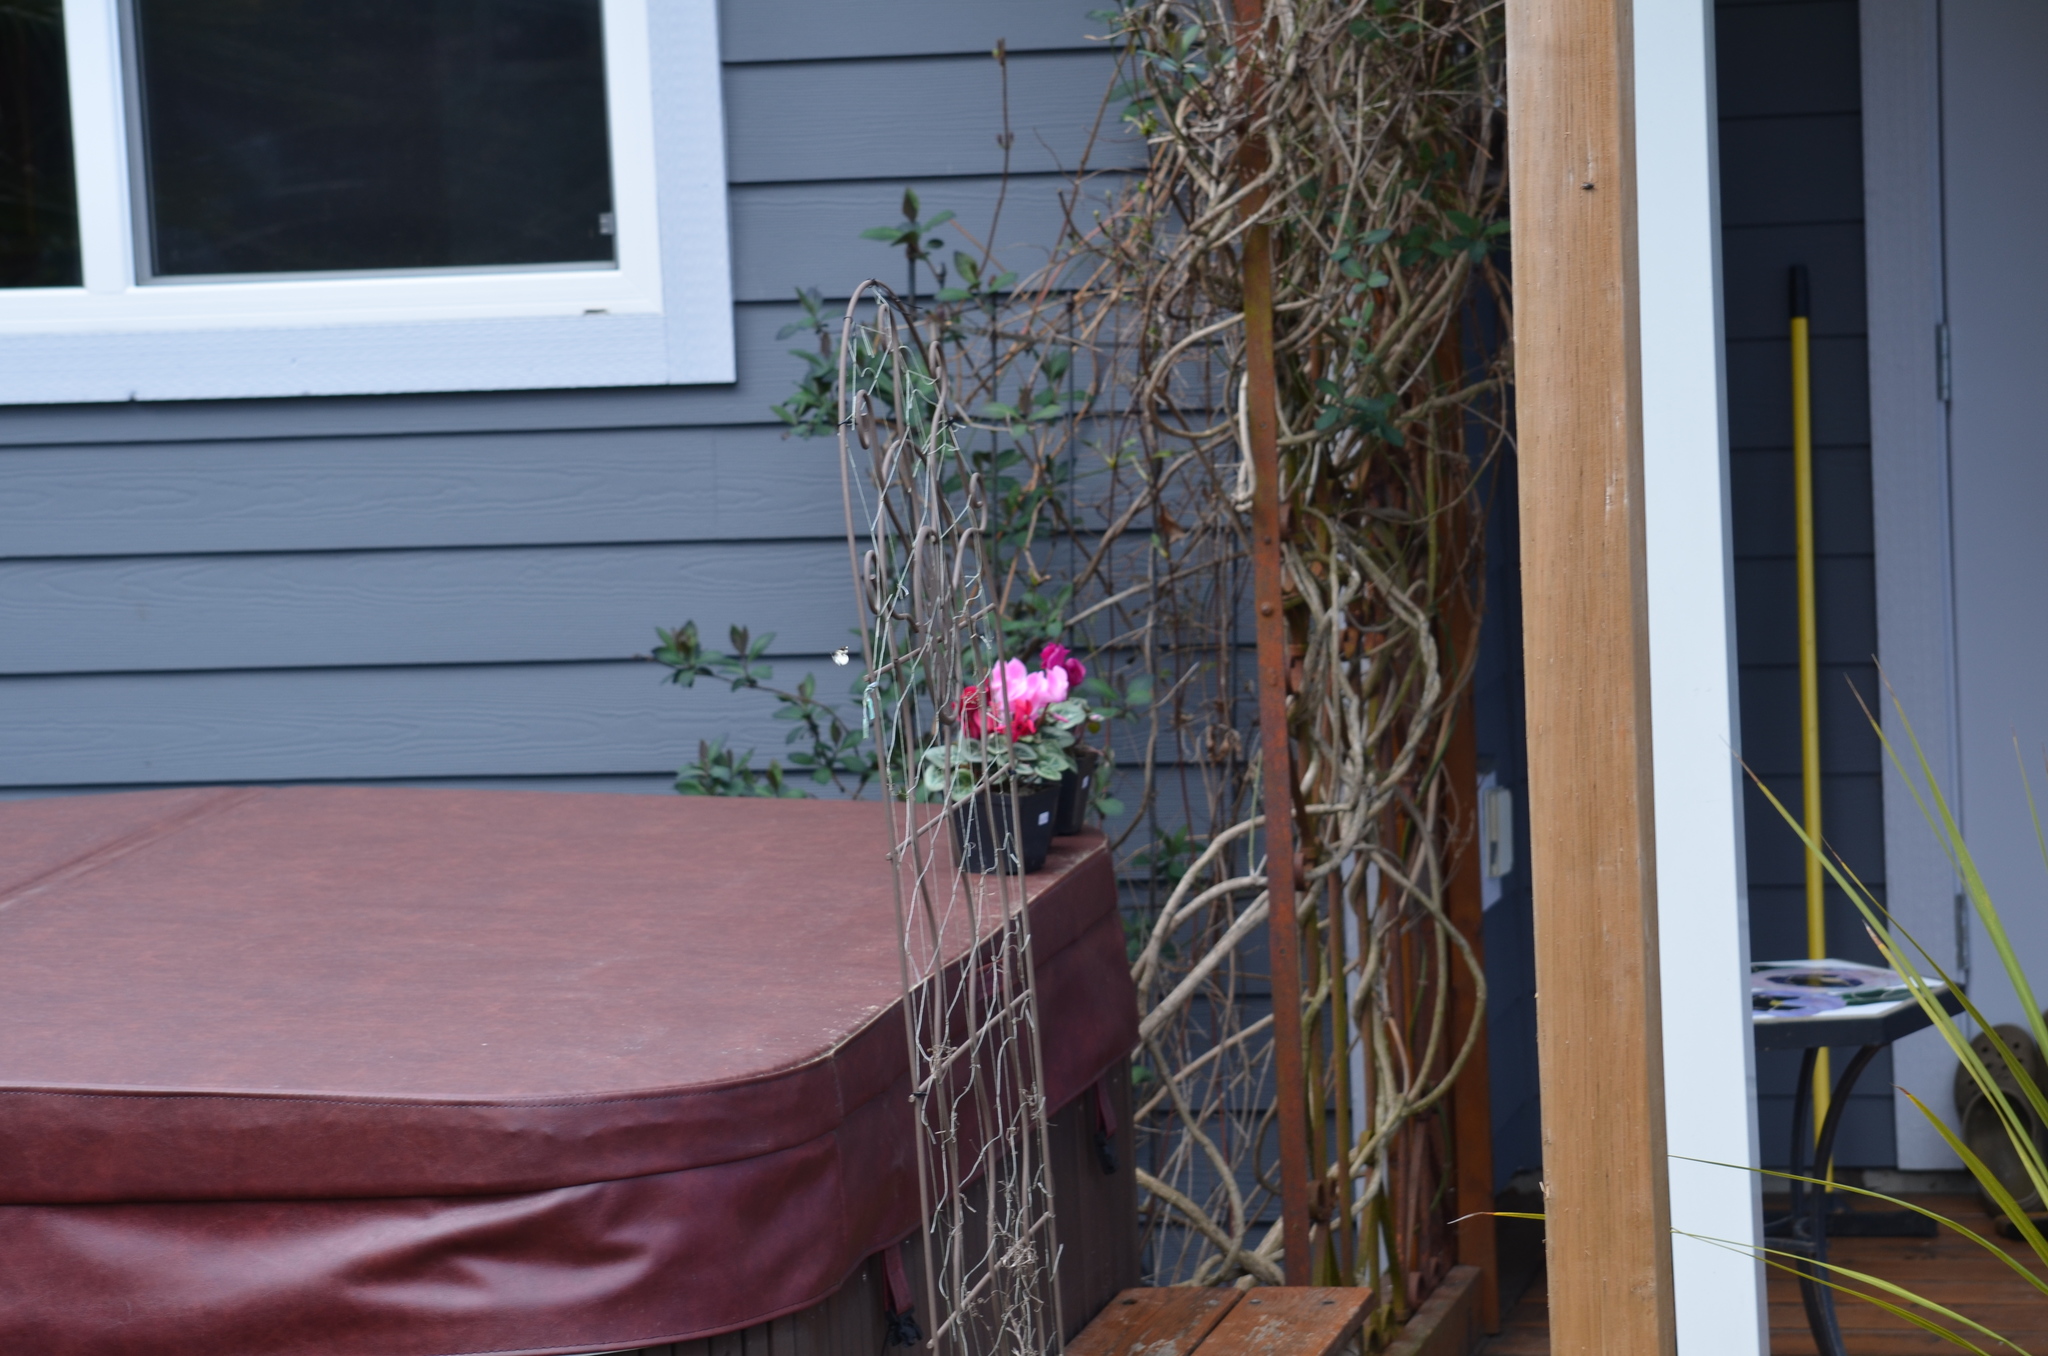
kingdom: Animalia
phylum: Arthropoda
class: Insecta
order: Lepidoptera
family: Geometridae
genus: Mesoleuca
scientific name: Mesoleuca gratulata
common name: Half-white carpet moth
